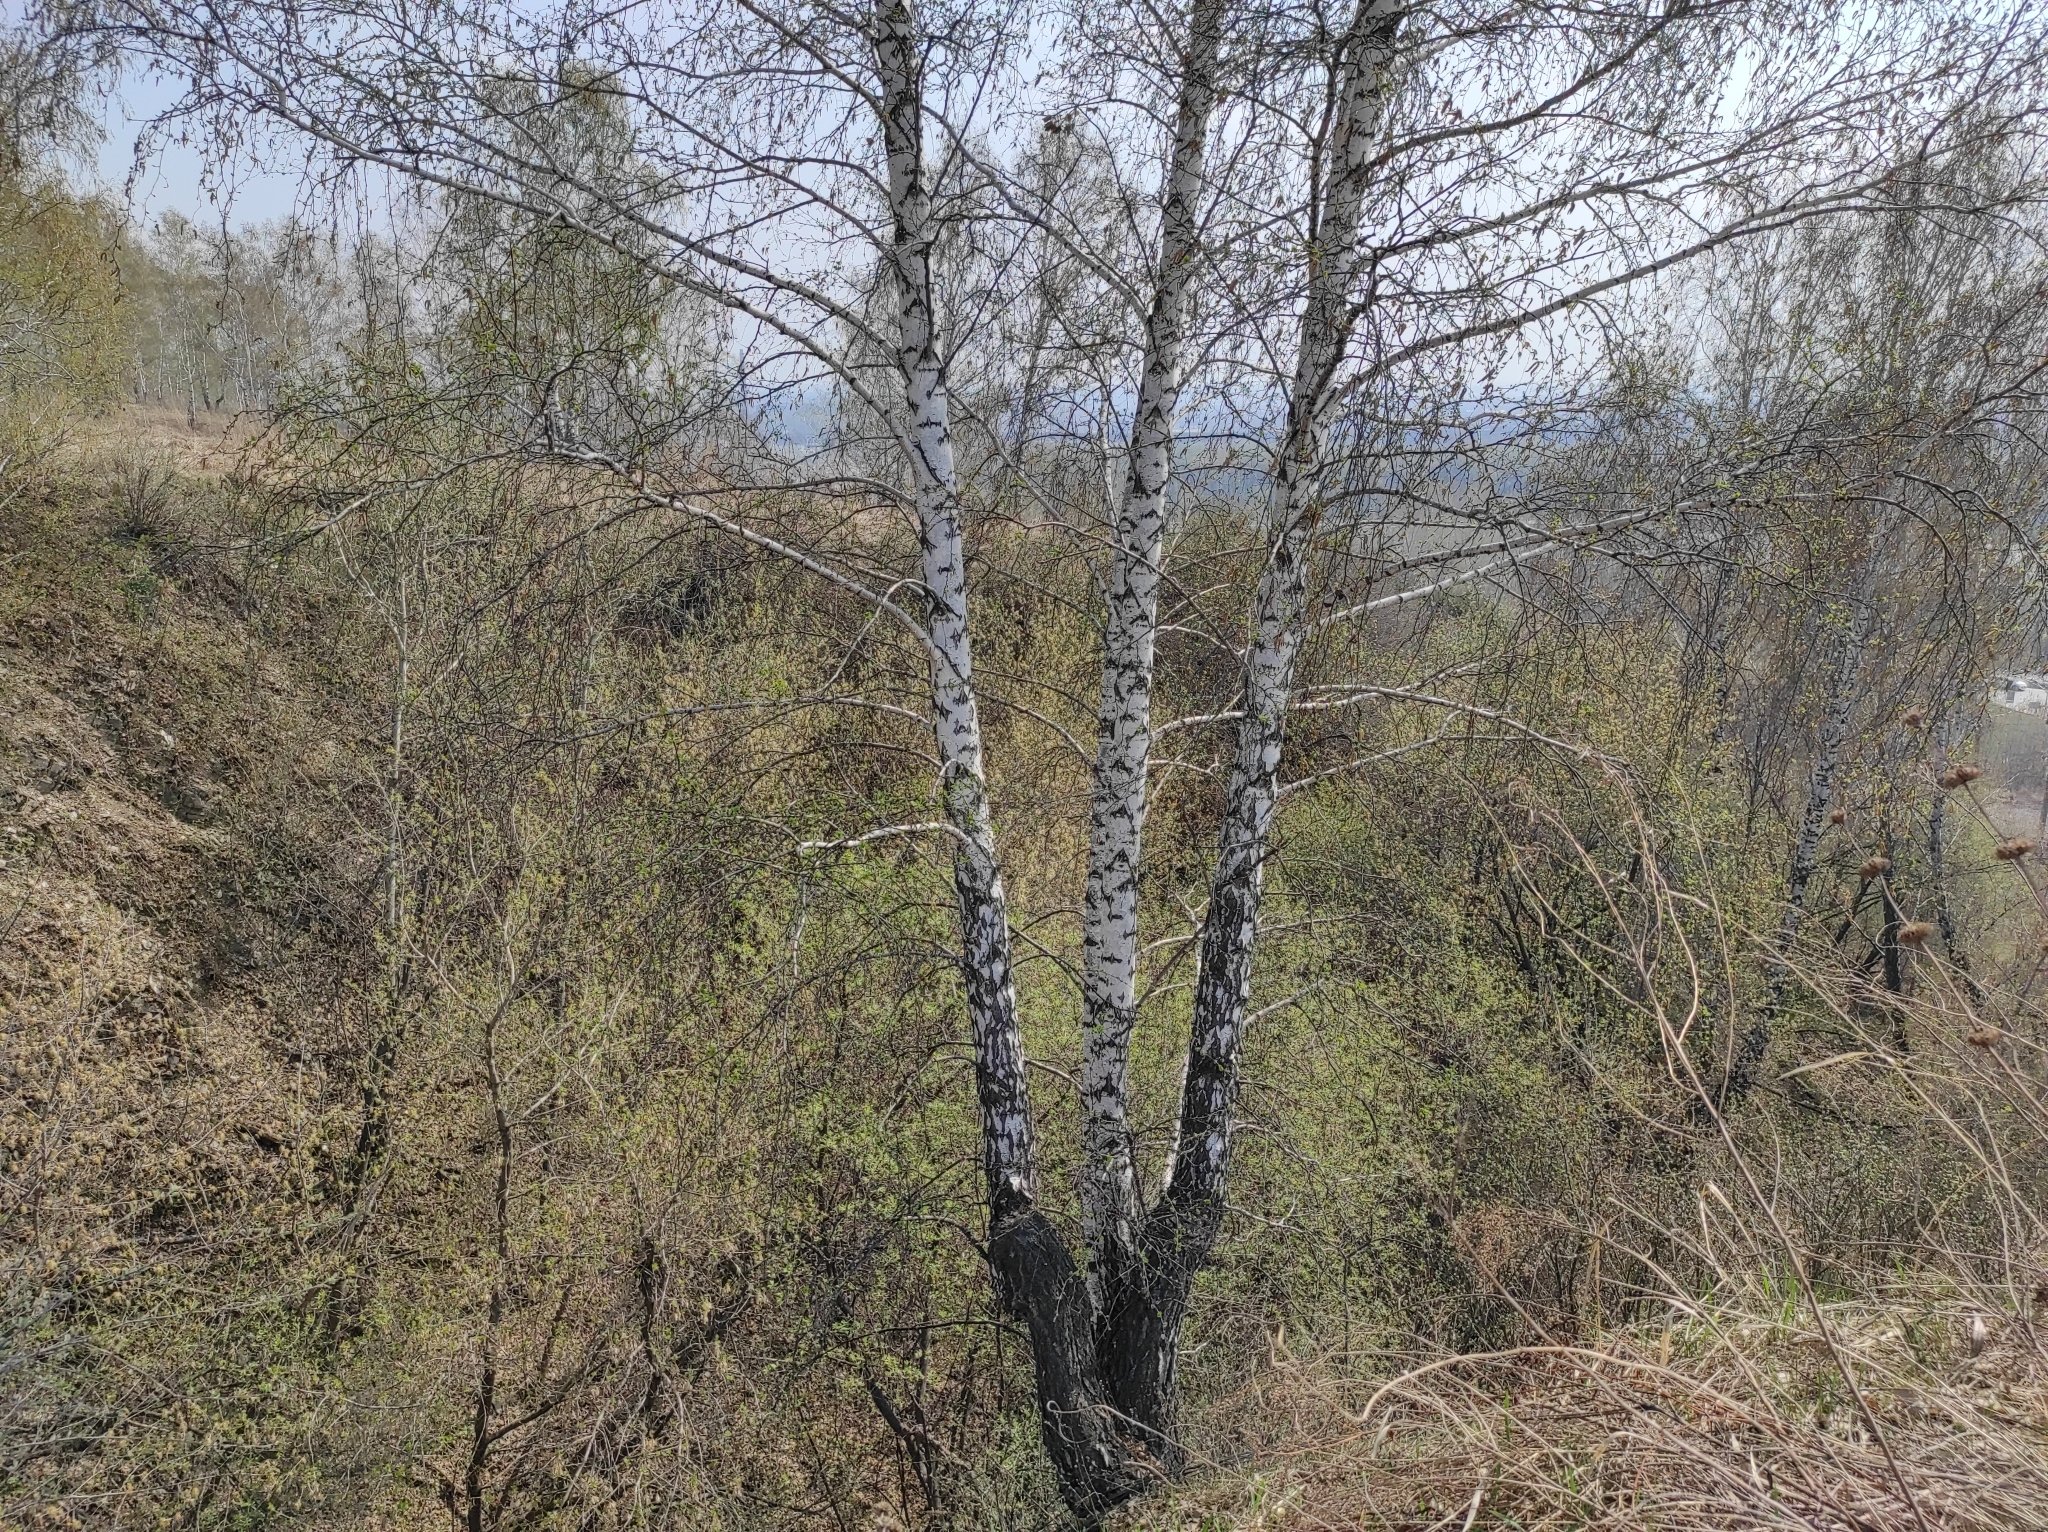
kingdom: Plantae
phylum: Tracheophyta
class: Magnoliopsida
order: Fagales
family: Betulaceae
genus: Betula
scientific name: Betula pendula
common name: Silver birch
